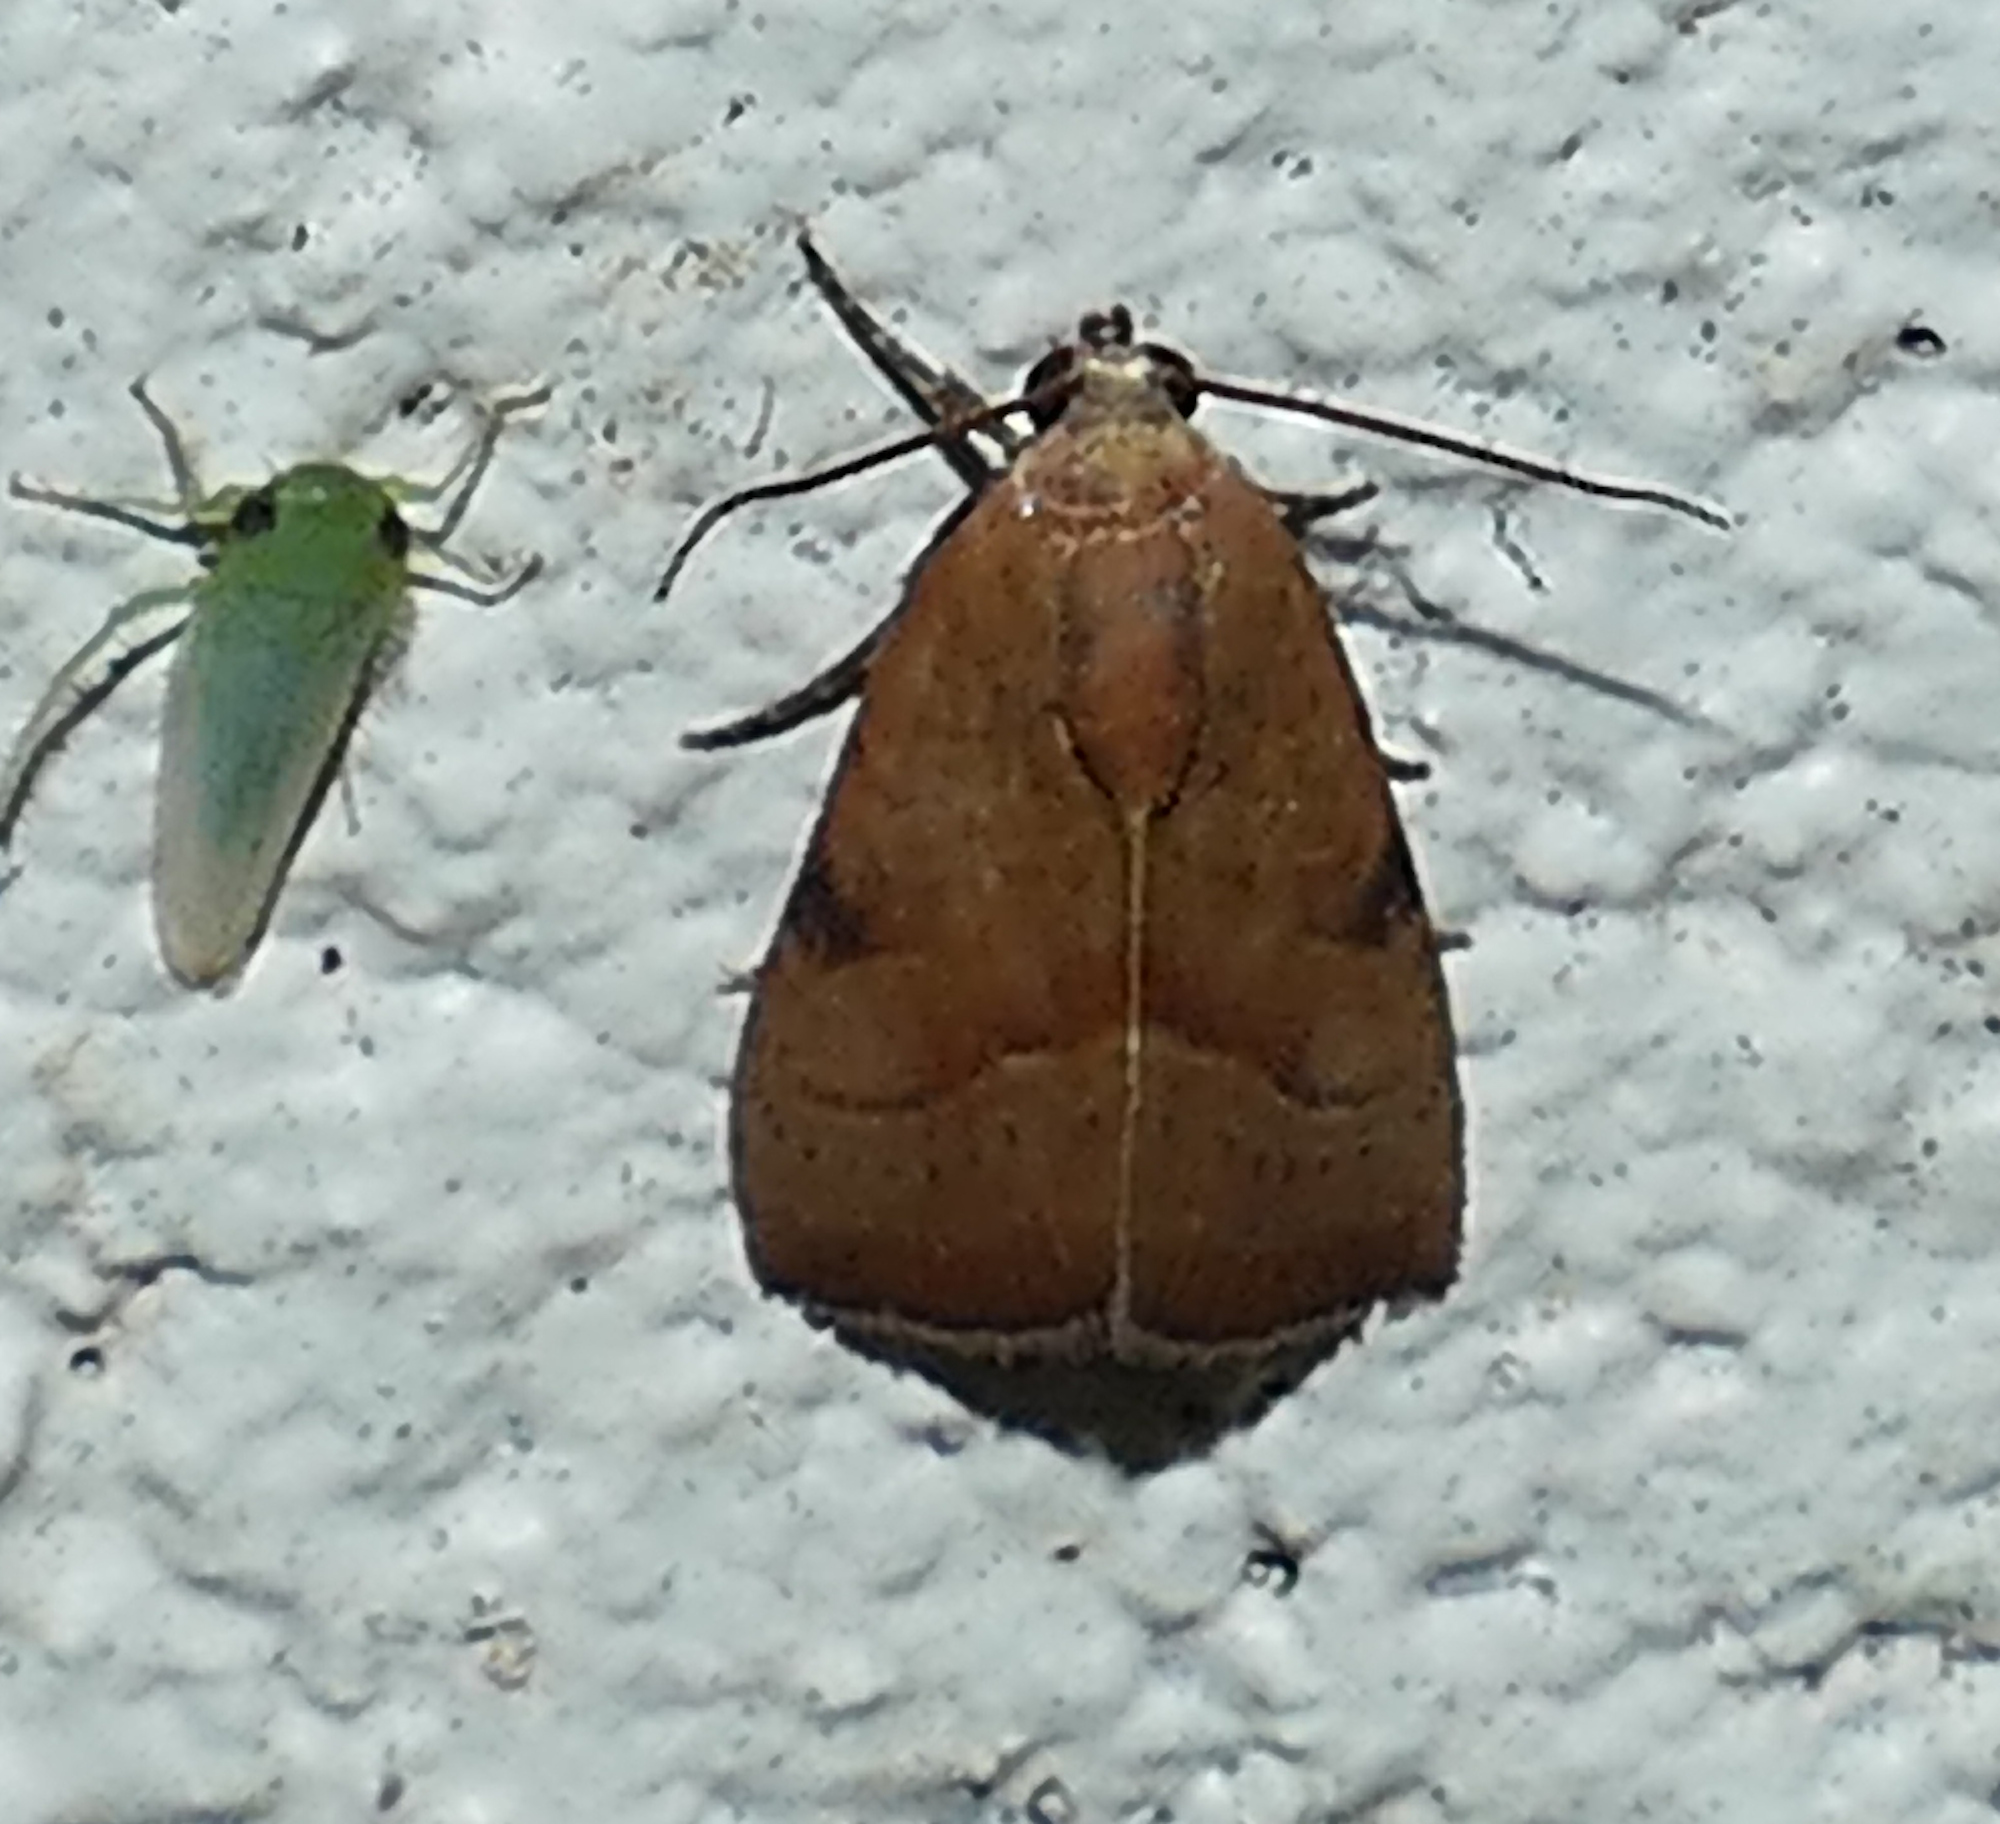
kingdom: Animalia
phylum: Arthropoda
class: Insecta
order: Lepidoptera
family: Noctuidae
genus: Galgula
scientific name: Galgula partita
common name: Wedgeling
